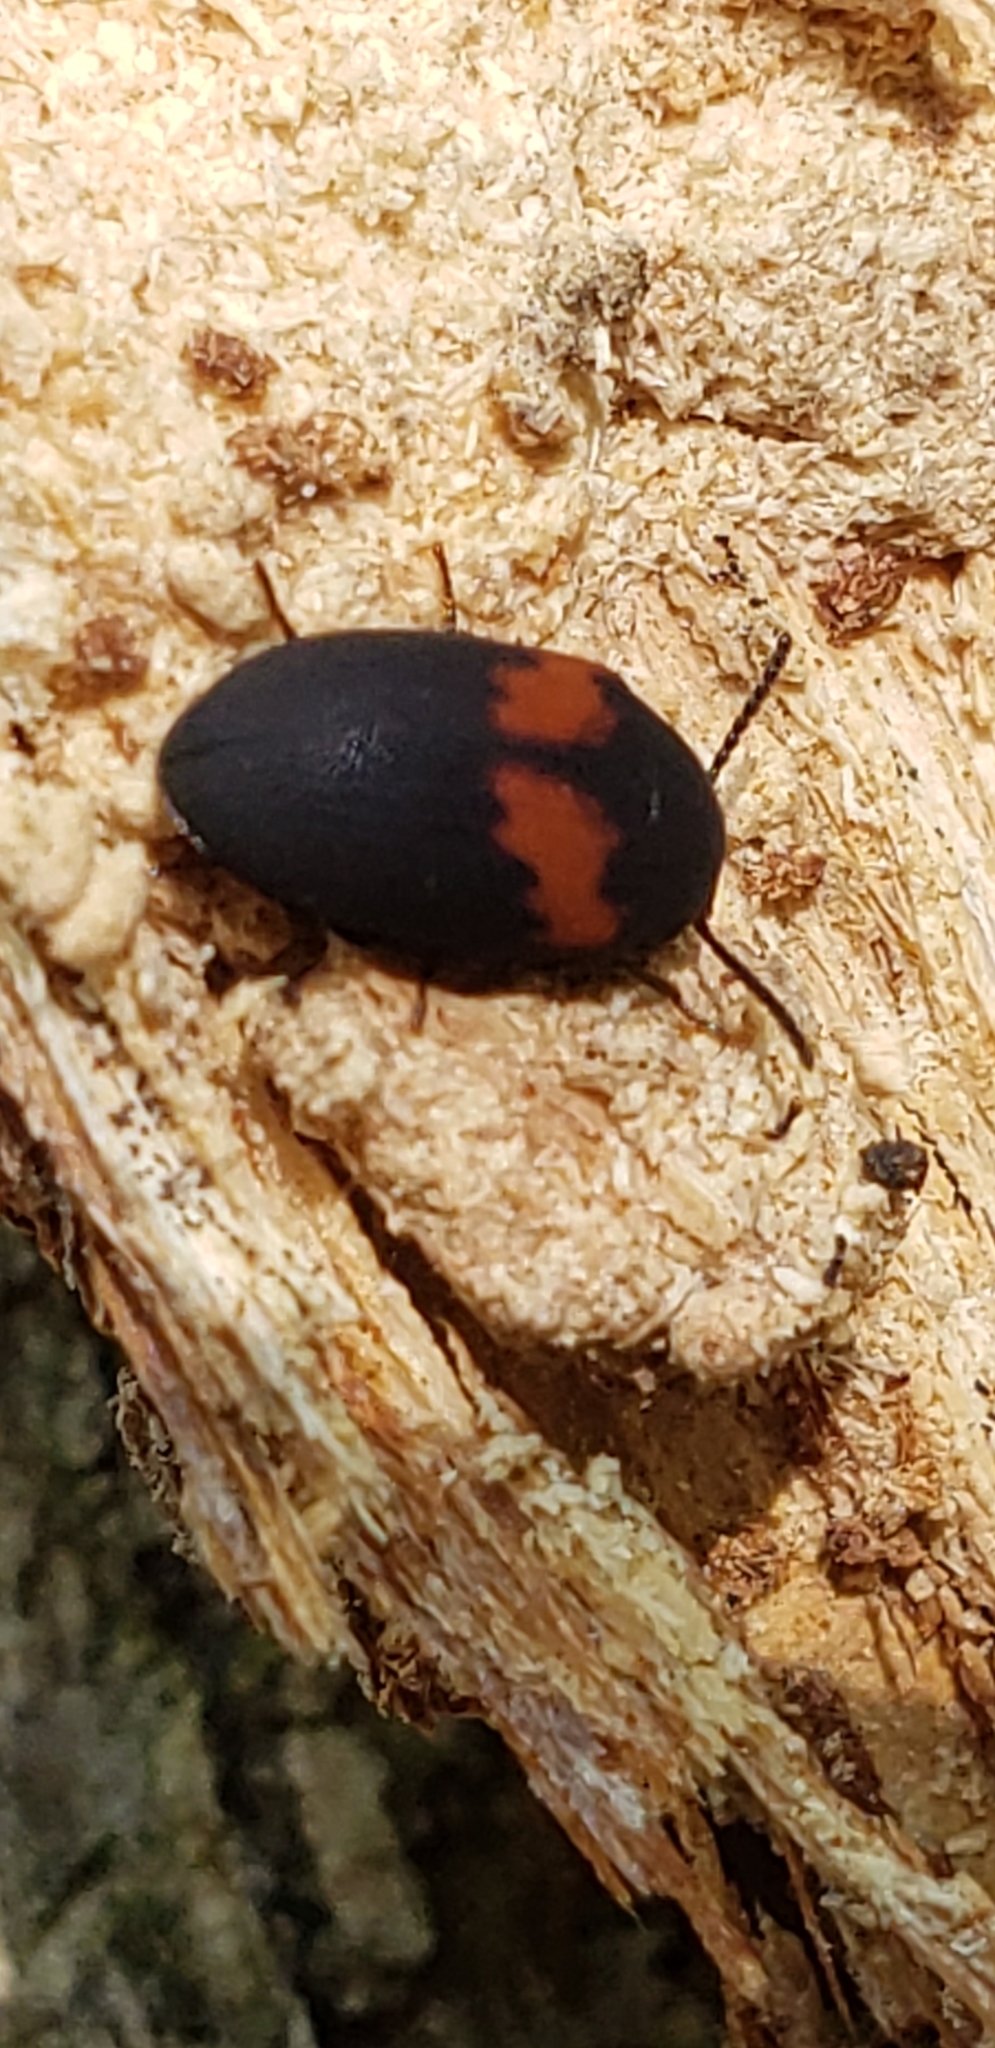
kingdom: Animalia
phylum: Arthropoda
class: Insecta
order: Coleoptera
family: Tenebrionidae
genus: Platydema
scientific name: Platydema elliptica
